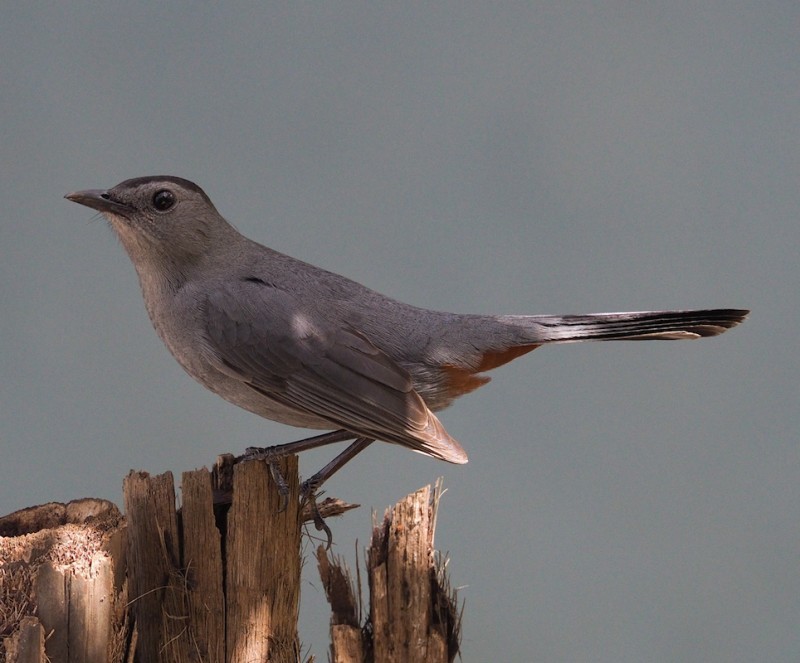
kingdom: Animalia
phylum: Chordata
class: Aves
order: Passeriformes
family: Mimidae
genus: Dumetella
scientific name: Dumetella carolinensis
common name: Gray catbird
